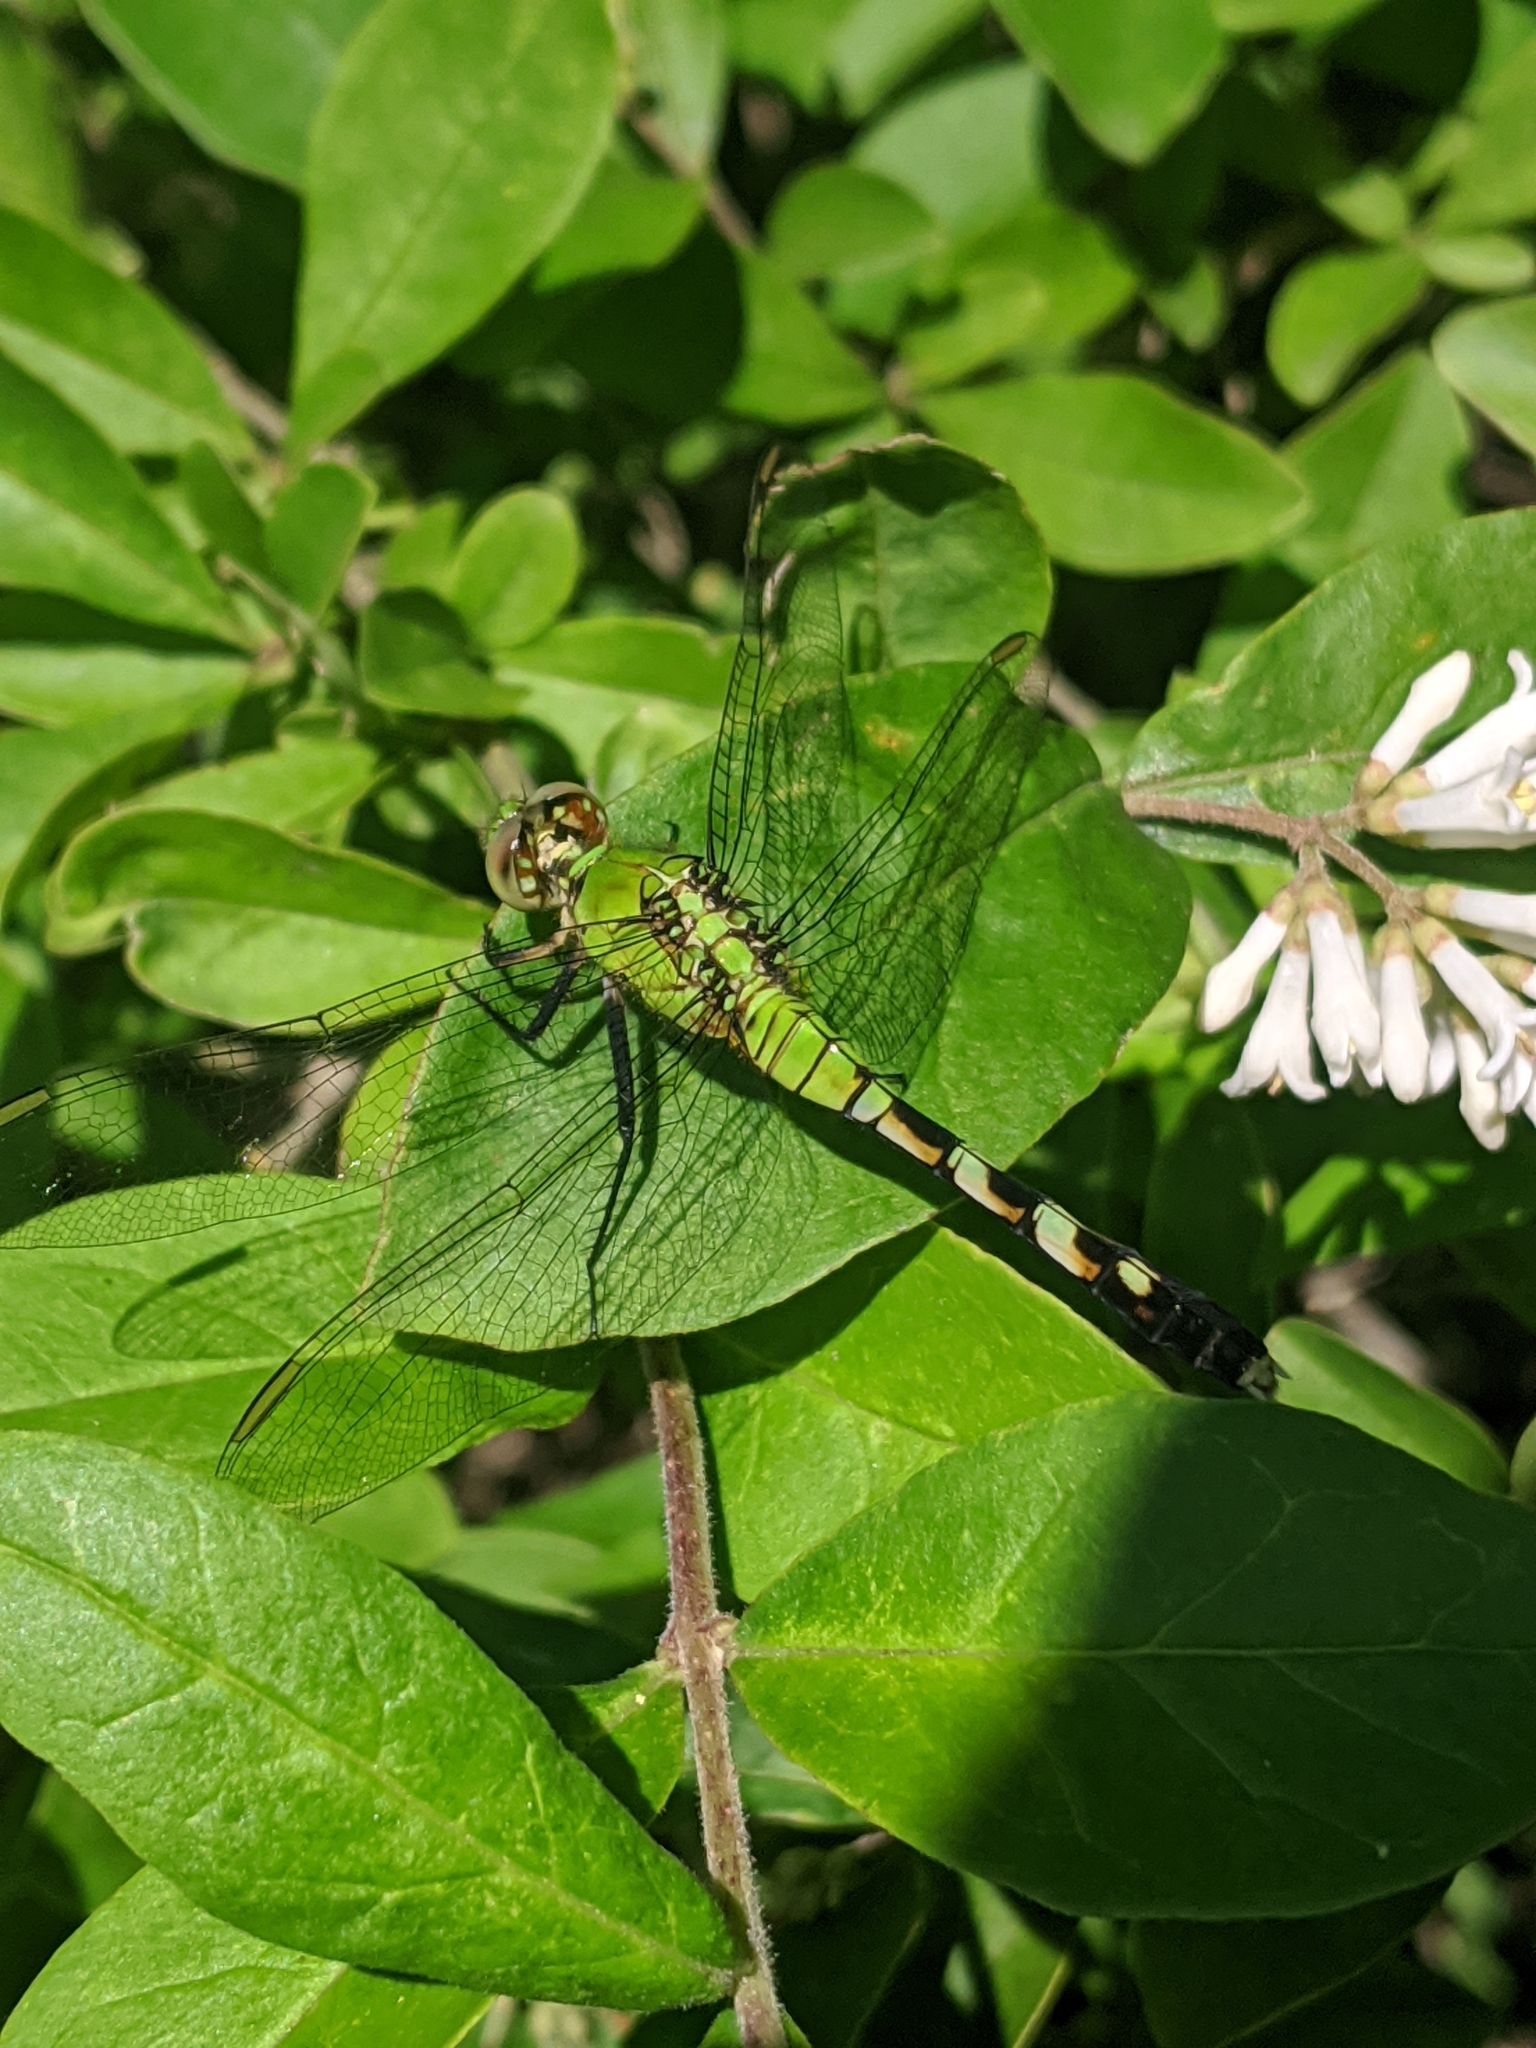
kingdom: Animalia
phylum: Arthropoda
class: Insecta
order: Odonata
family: Libellulidae
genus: Erythemis
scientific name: Erythemis simplicicollis
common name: Eastern pondhawk
